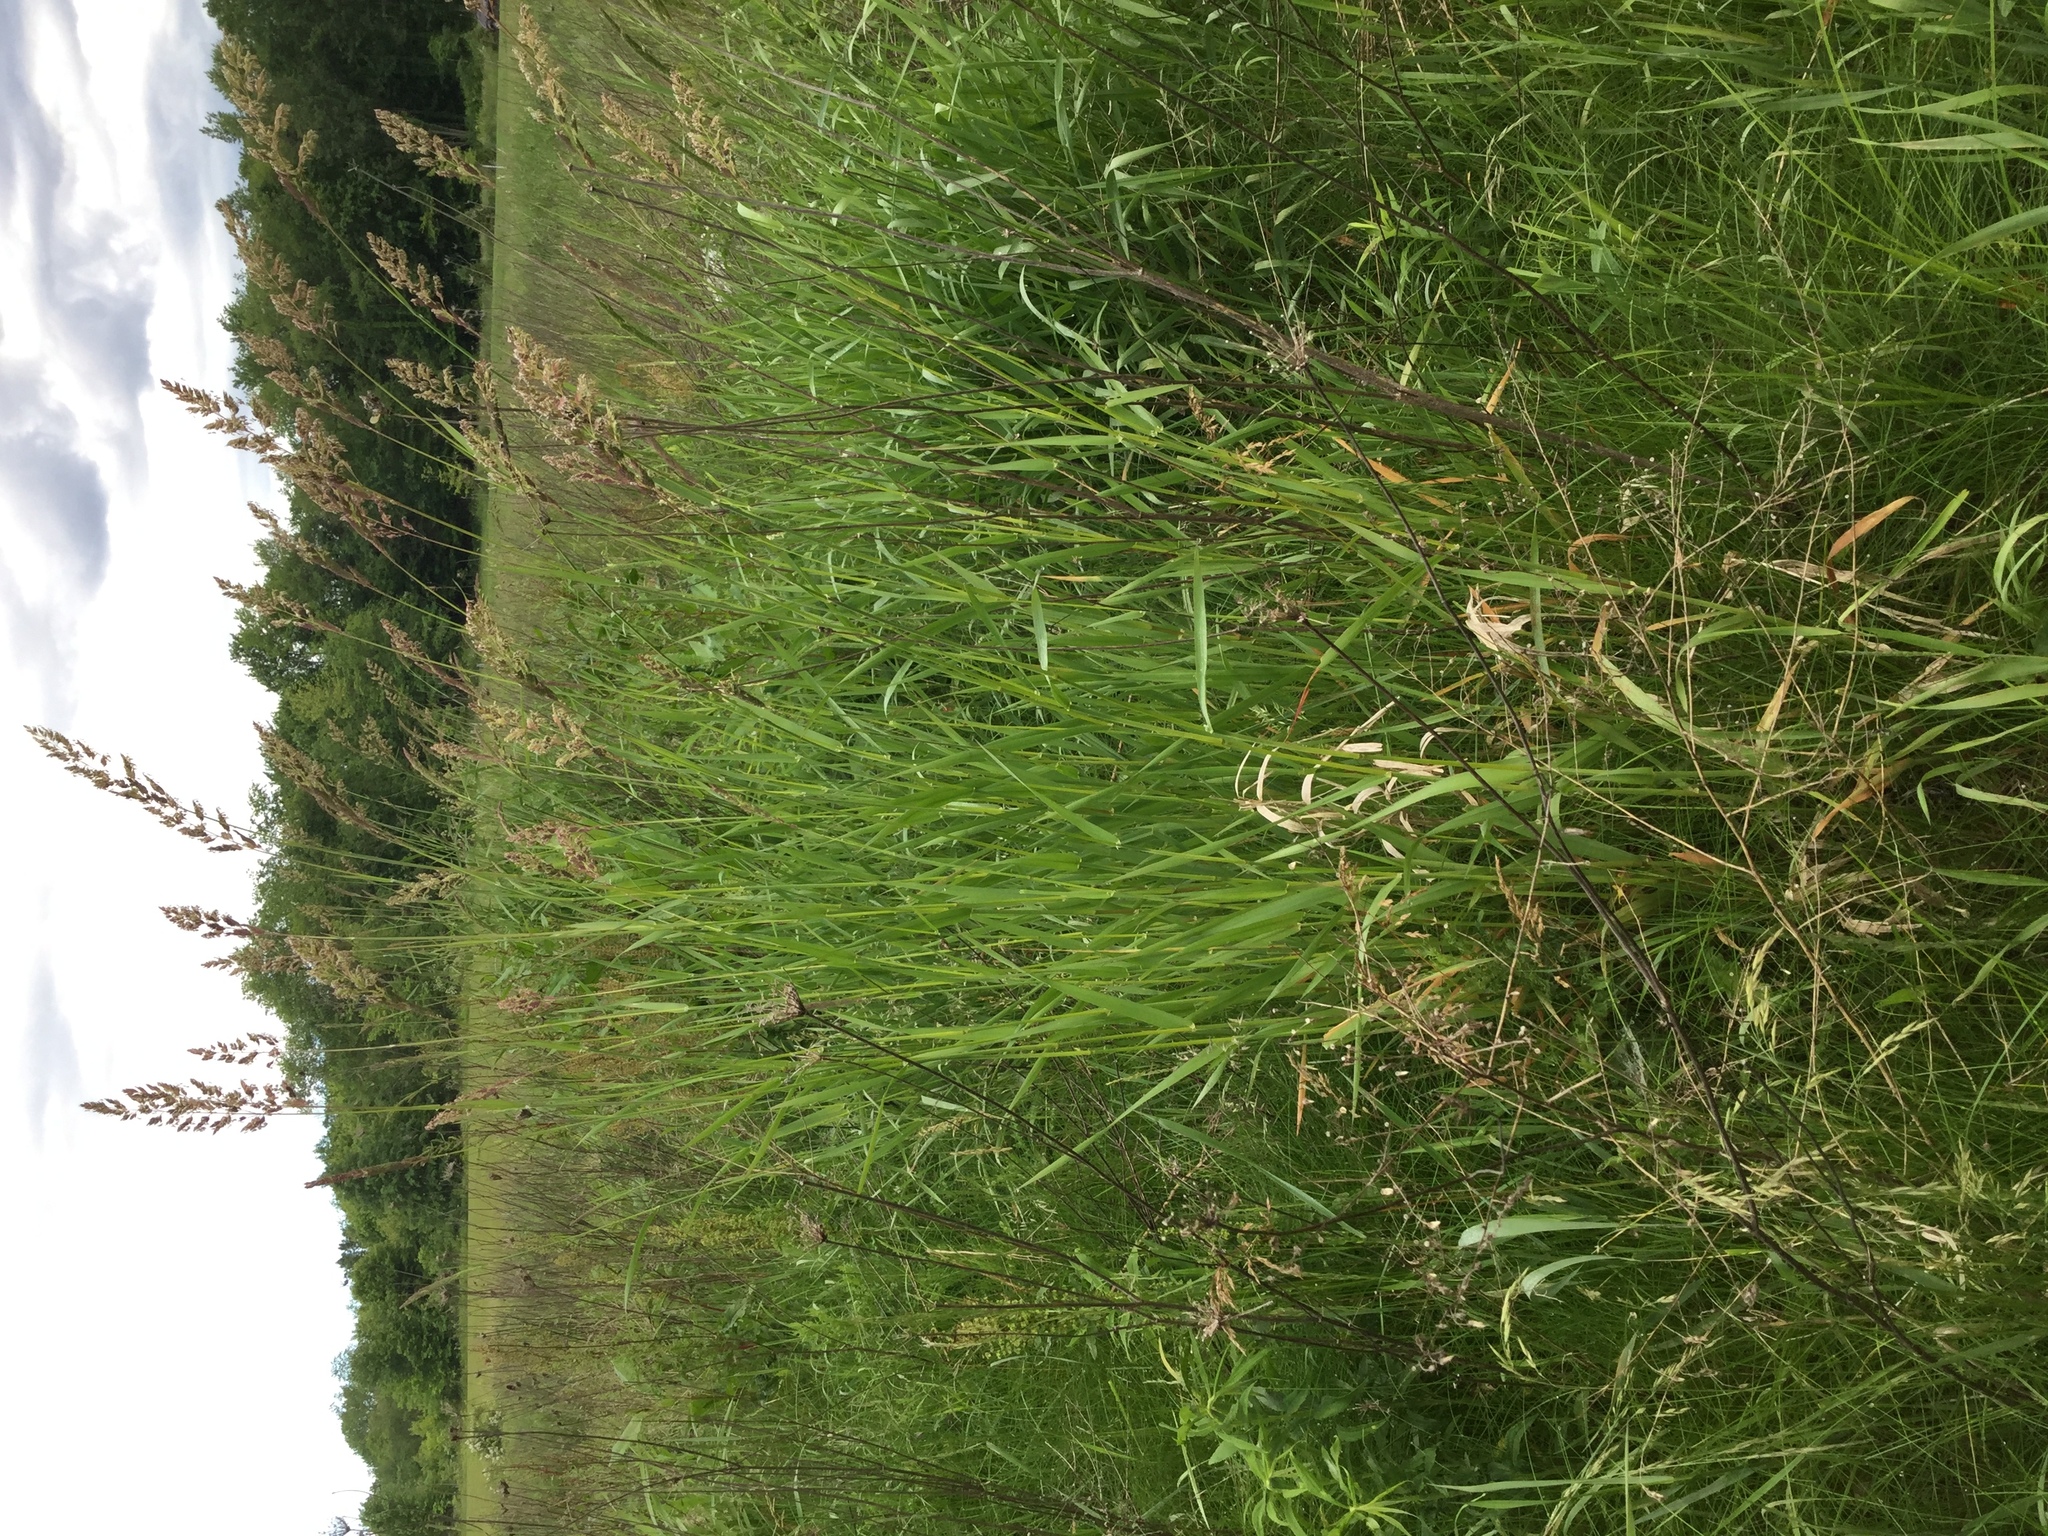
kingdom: Plantae
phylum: Tracheophyta
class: Liliopsida
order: Poales
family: Poaceae
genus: Phalaris
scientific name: Phalaris arundinacea
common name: Reed canary-grass
